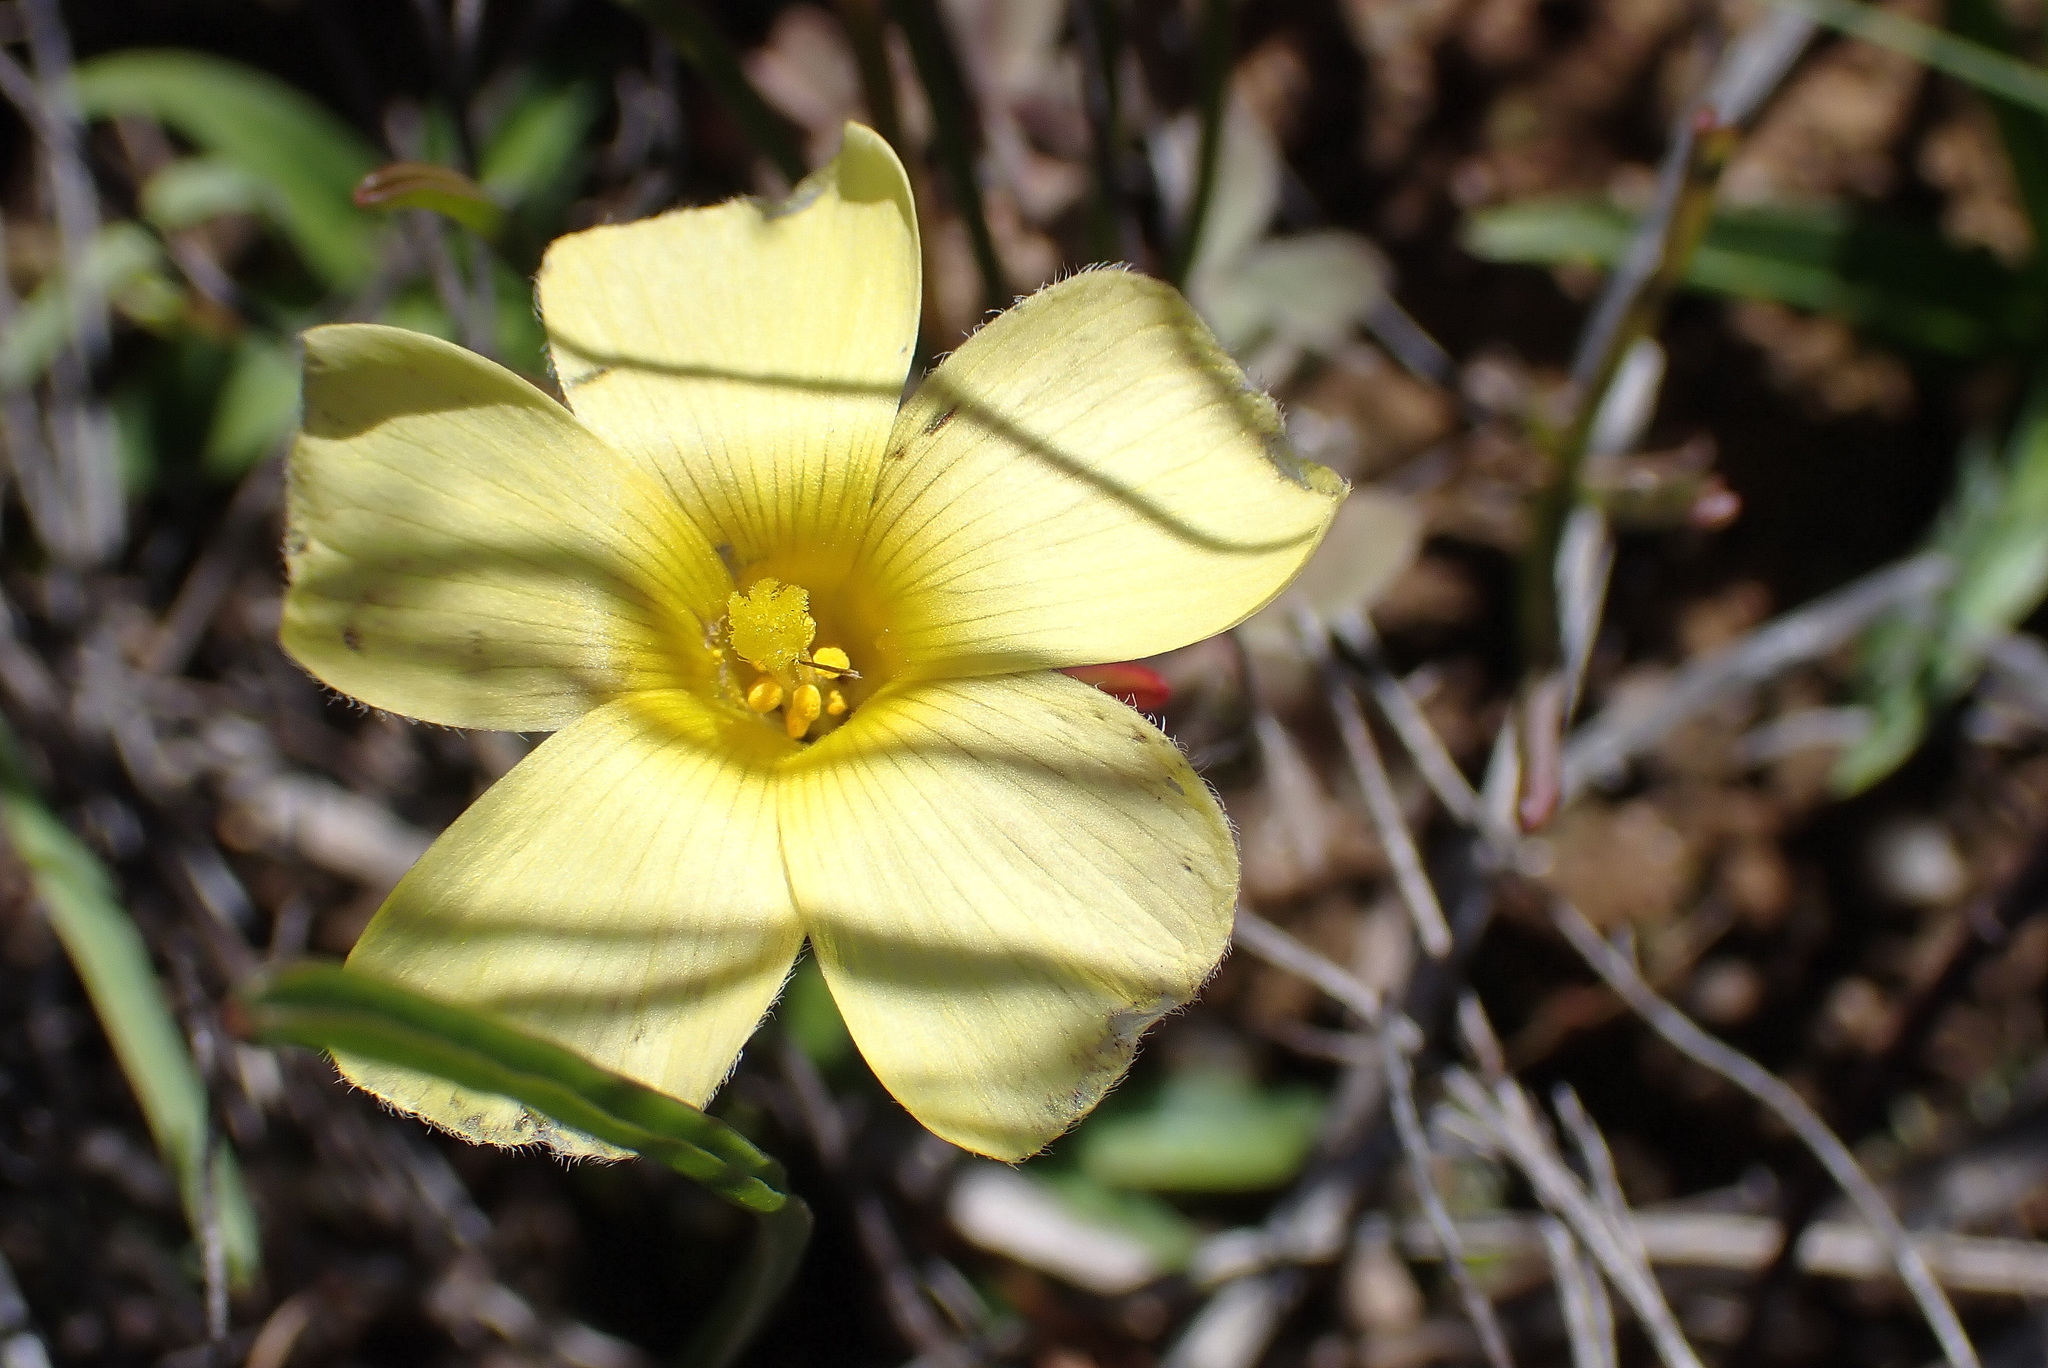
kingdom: Plantae
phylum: Tracheophyta
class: Magnoliopsida
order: Oxalidales
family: Oxalidaceae
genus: Oxalis
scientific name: Oxalis obtusa
